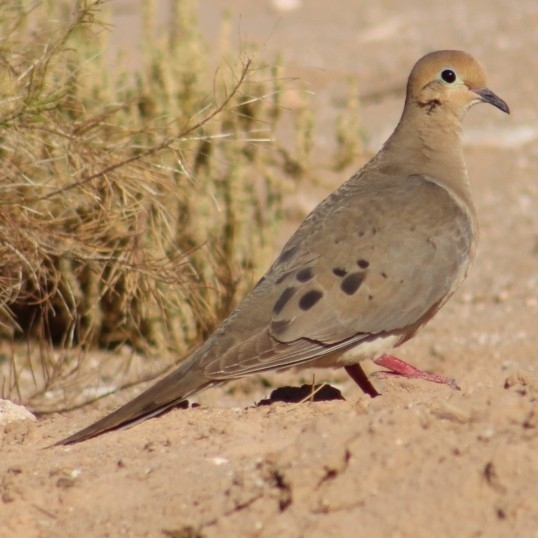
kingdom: Animalia
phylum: Chordata
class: Aves
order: Columbiformes
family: Columbidae
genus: Zenaida
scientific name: Zenaida macroura
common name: Mourning dove
